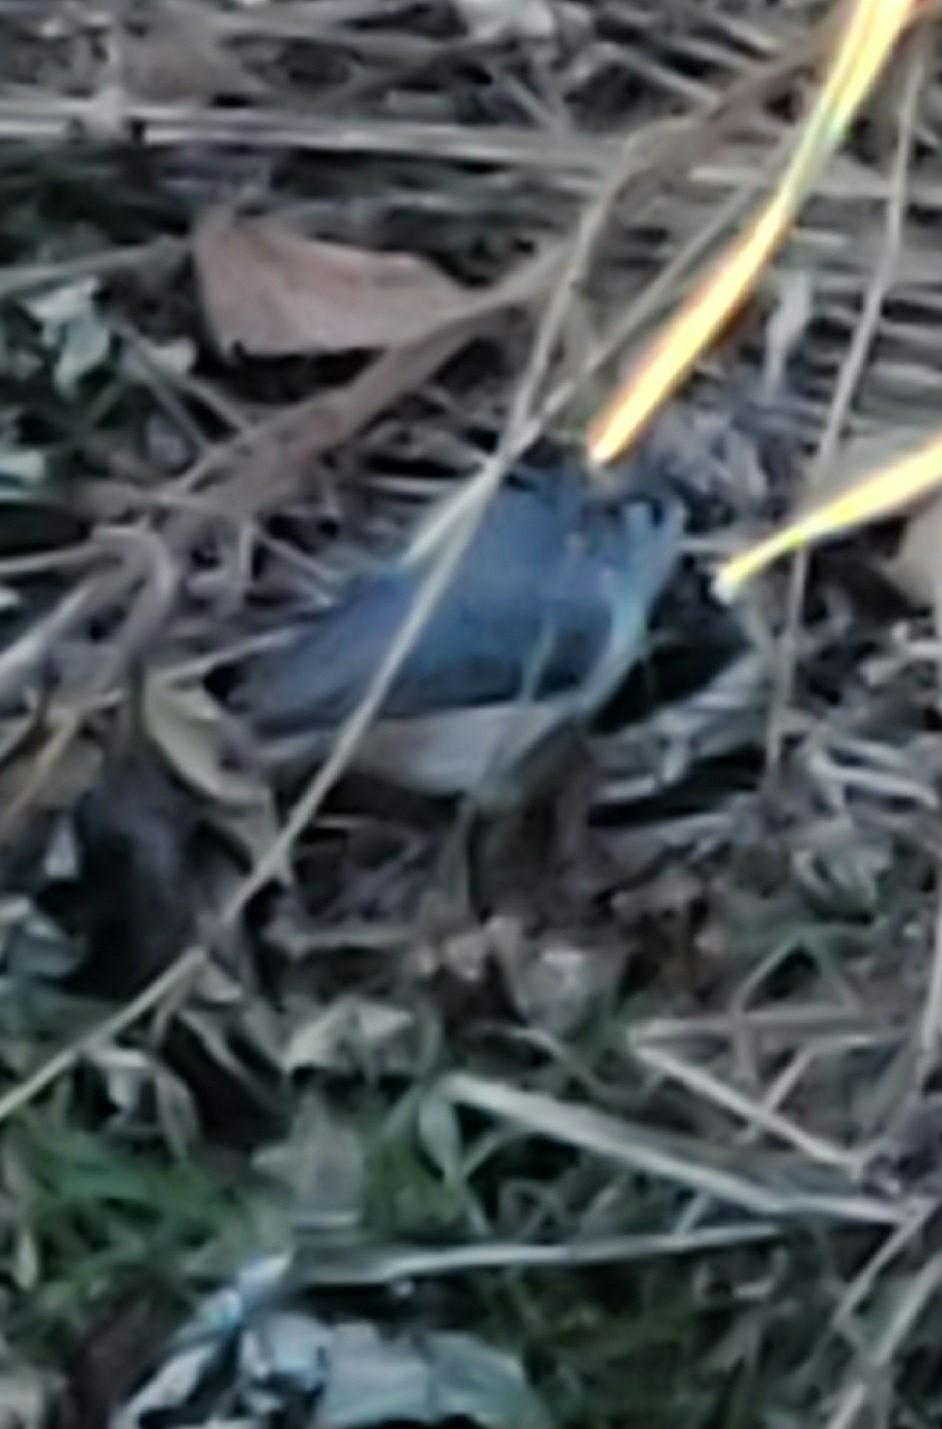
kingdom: Animalia
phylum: Chordata
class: Aves
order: Passeriformes
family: Paridae
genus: Baeolophus
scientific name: Baeolophus bicolor
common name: Tufted titmouse
